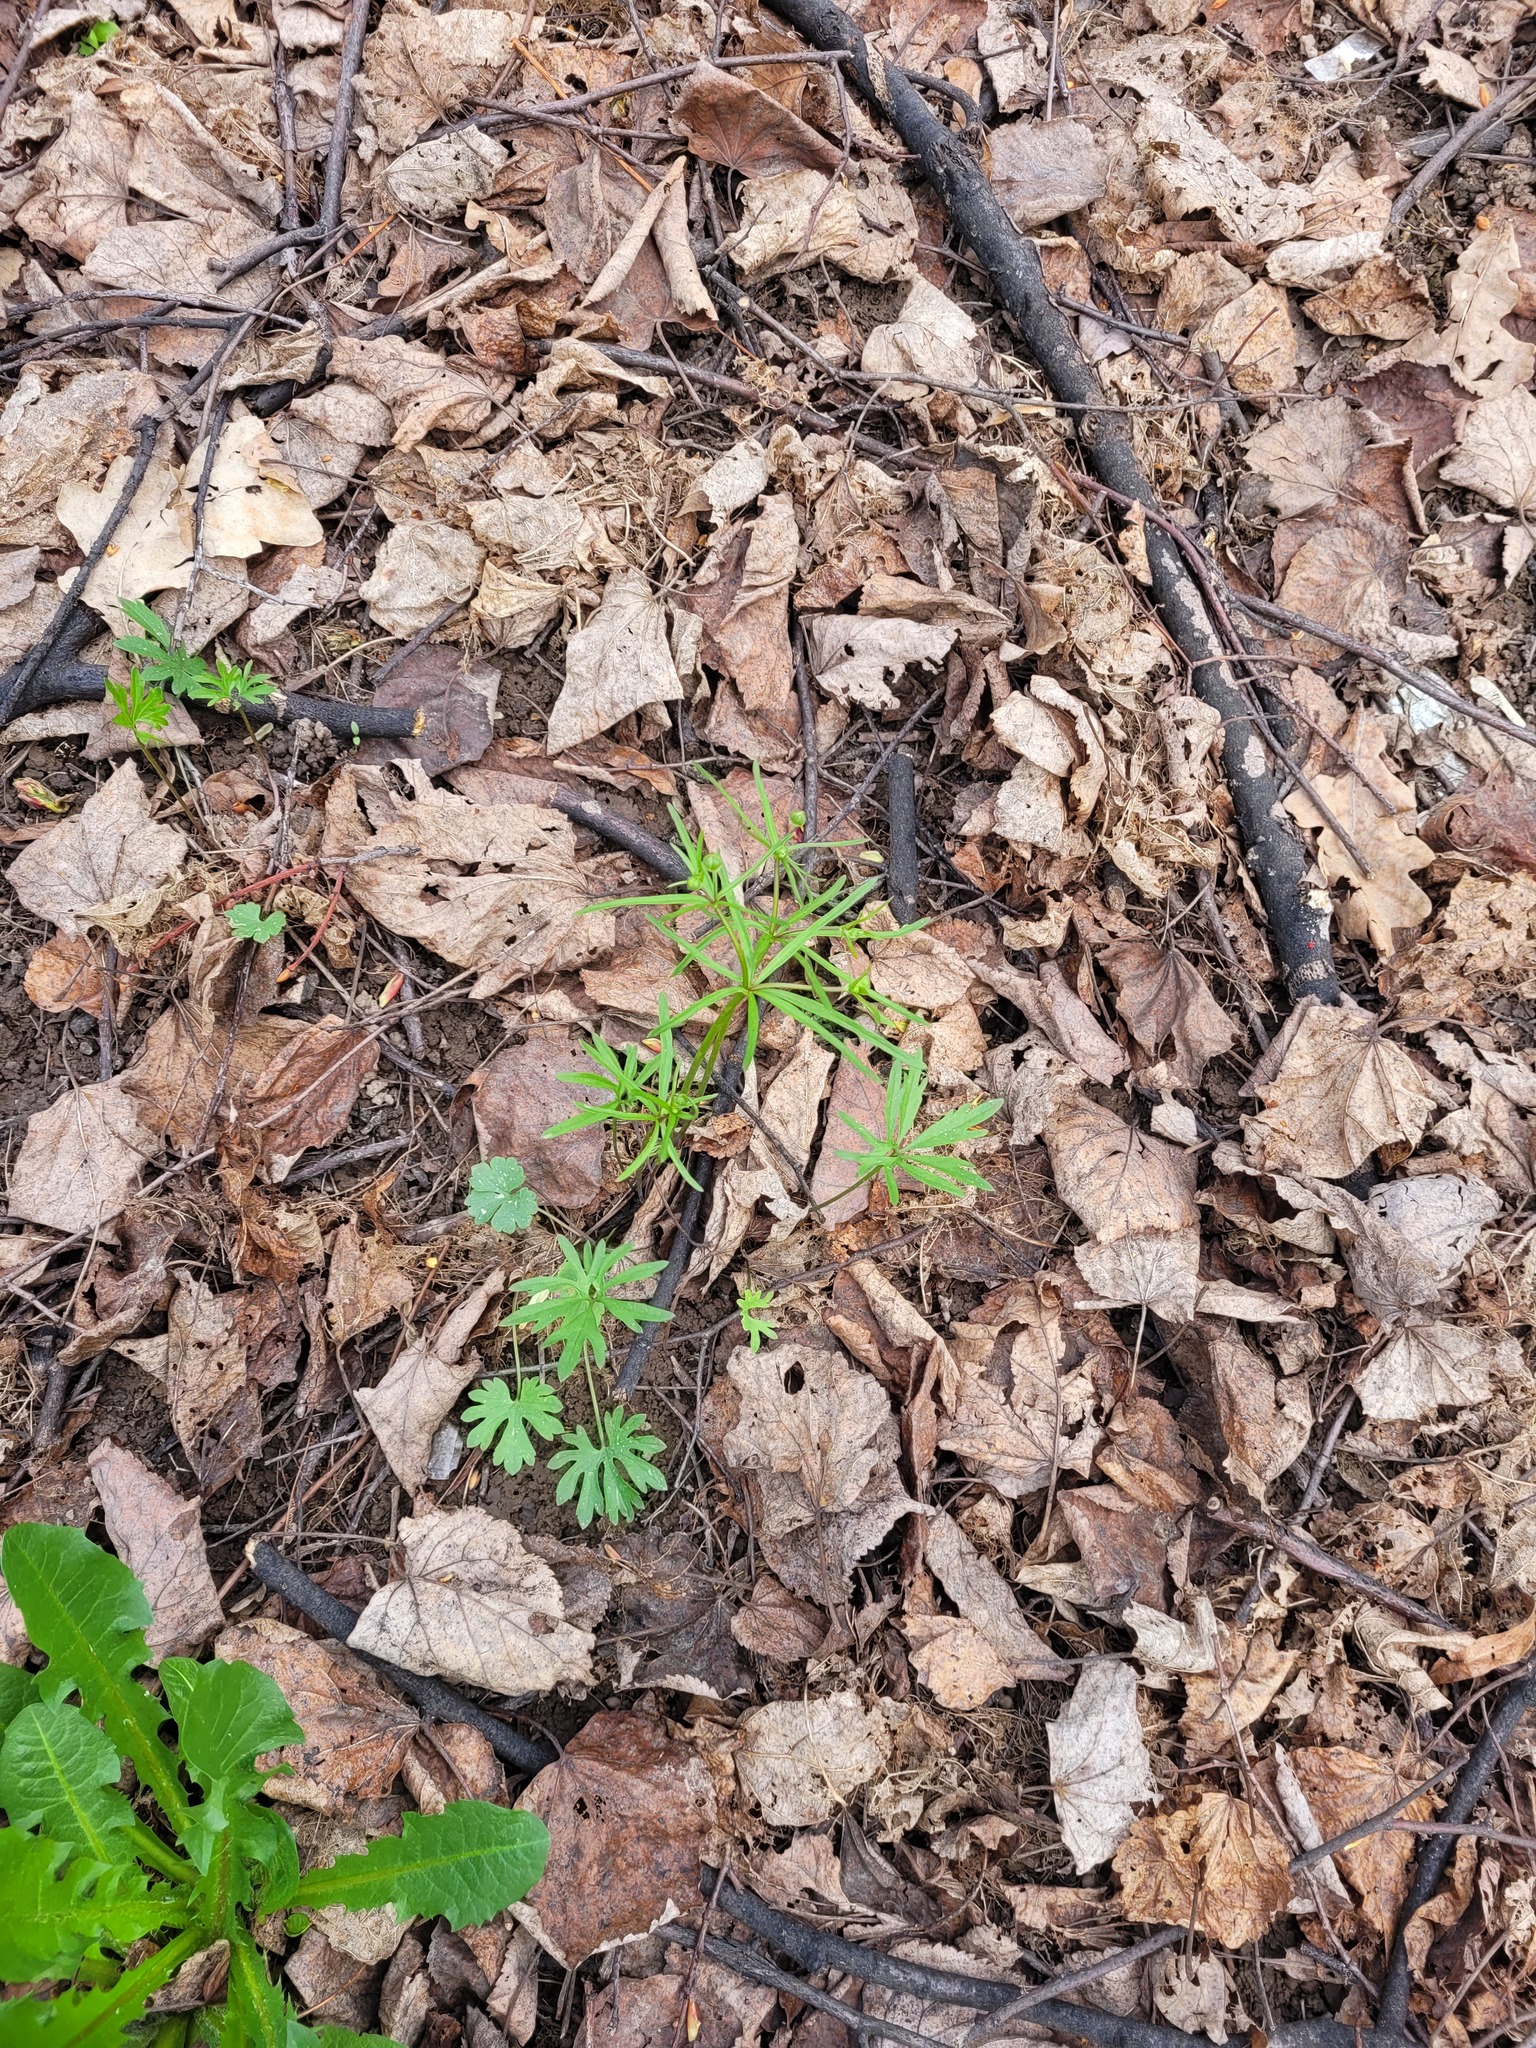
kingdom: Plantae
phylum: Tracheophyta
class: Magnoliopsida
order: Ranunculales
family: Ranunculaceae
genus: Ranunculus
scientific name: Ranunculus auricomus
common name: Goldilocks buttercup
